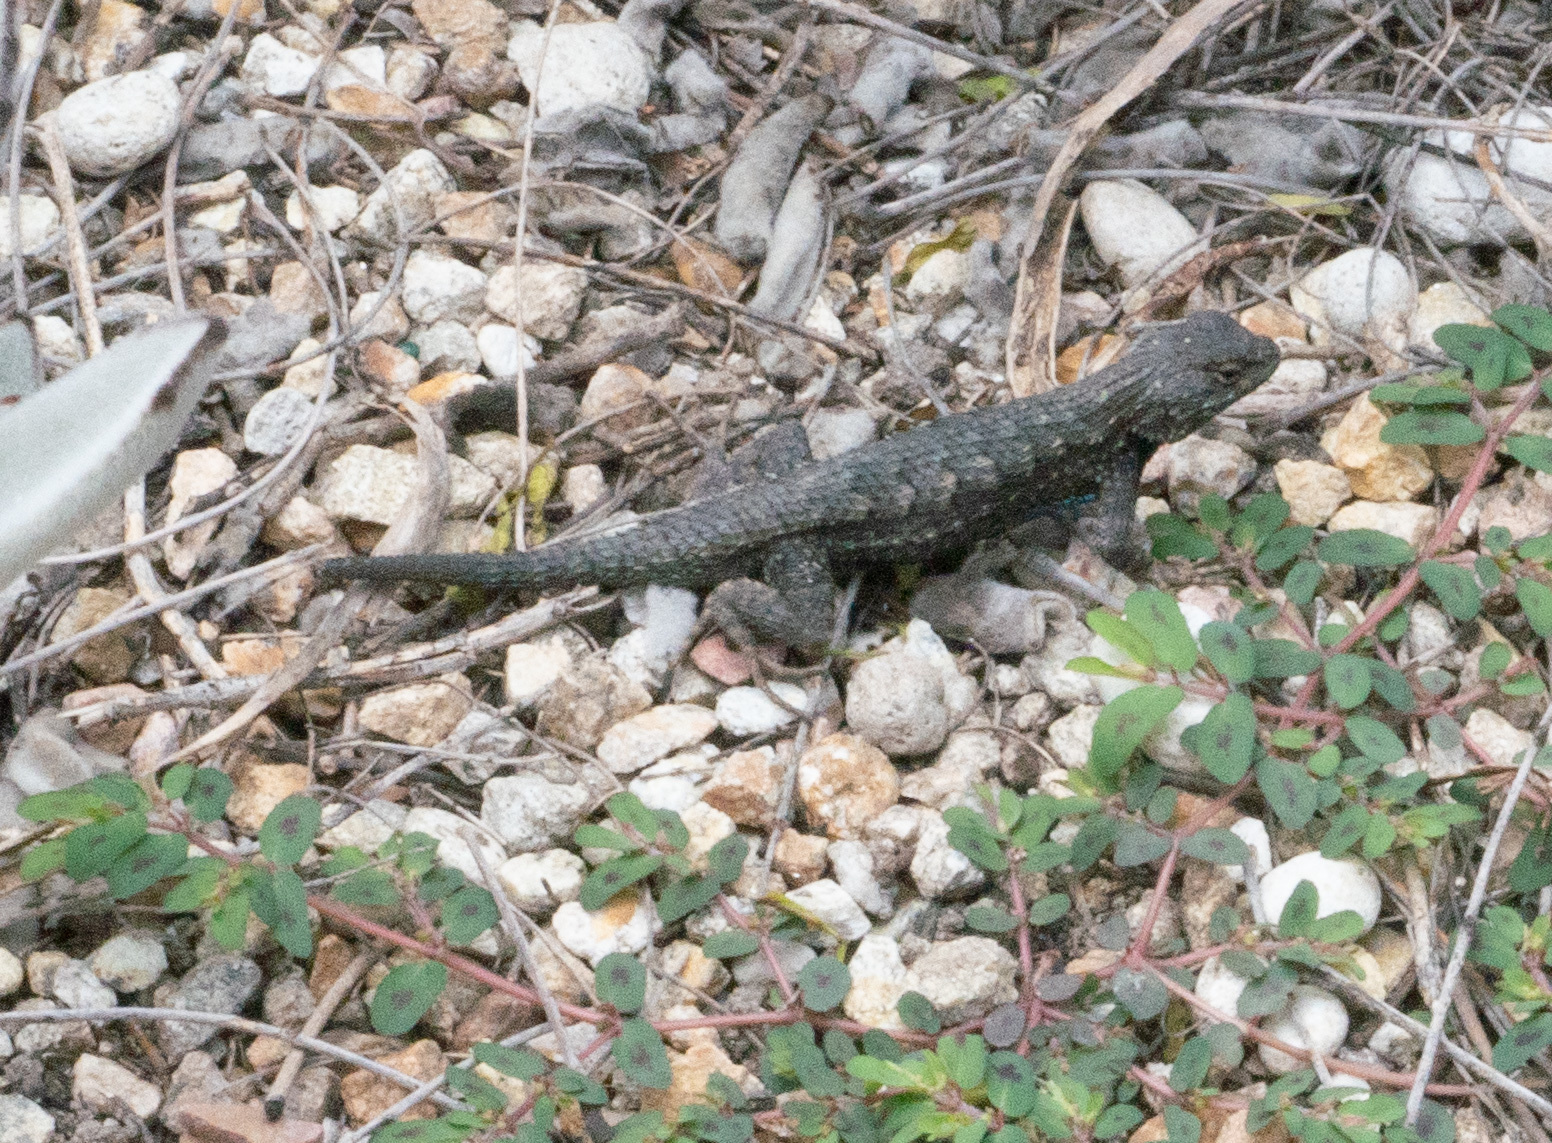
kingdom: Animalia
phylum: Chordata
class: Squamata
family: Phrynosomatidae
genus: Sceloporus
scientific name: Sceloporus occidentalis
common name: Western fence lizard
